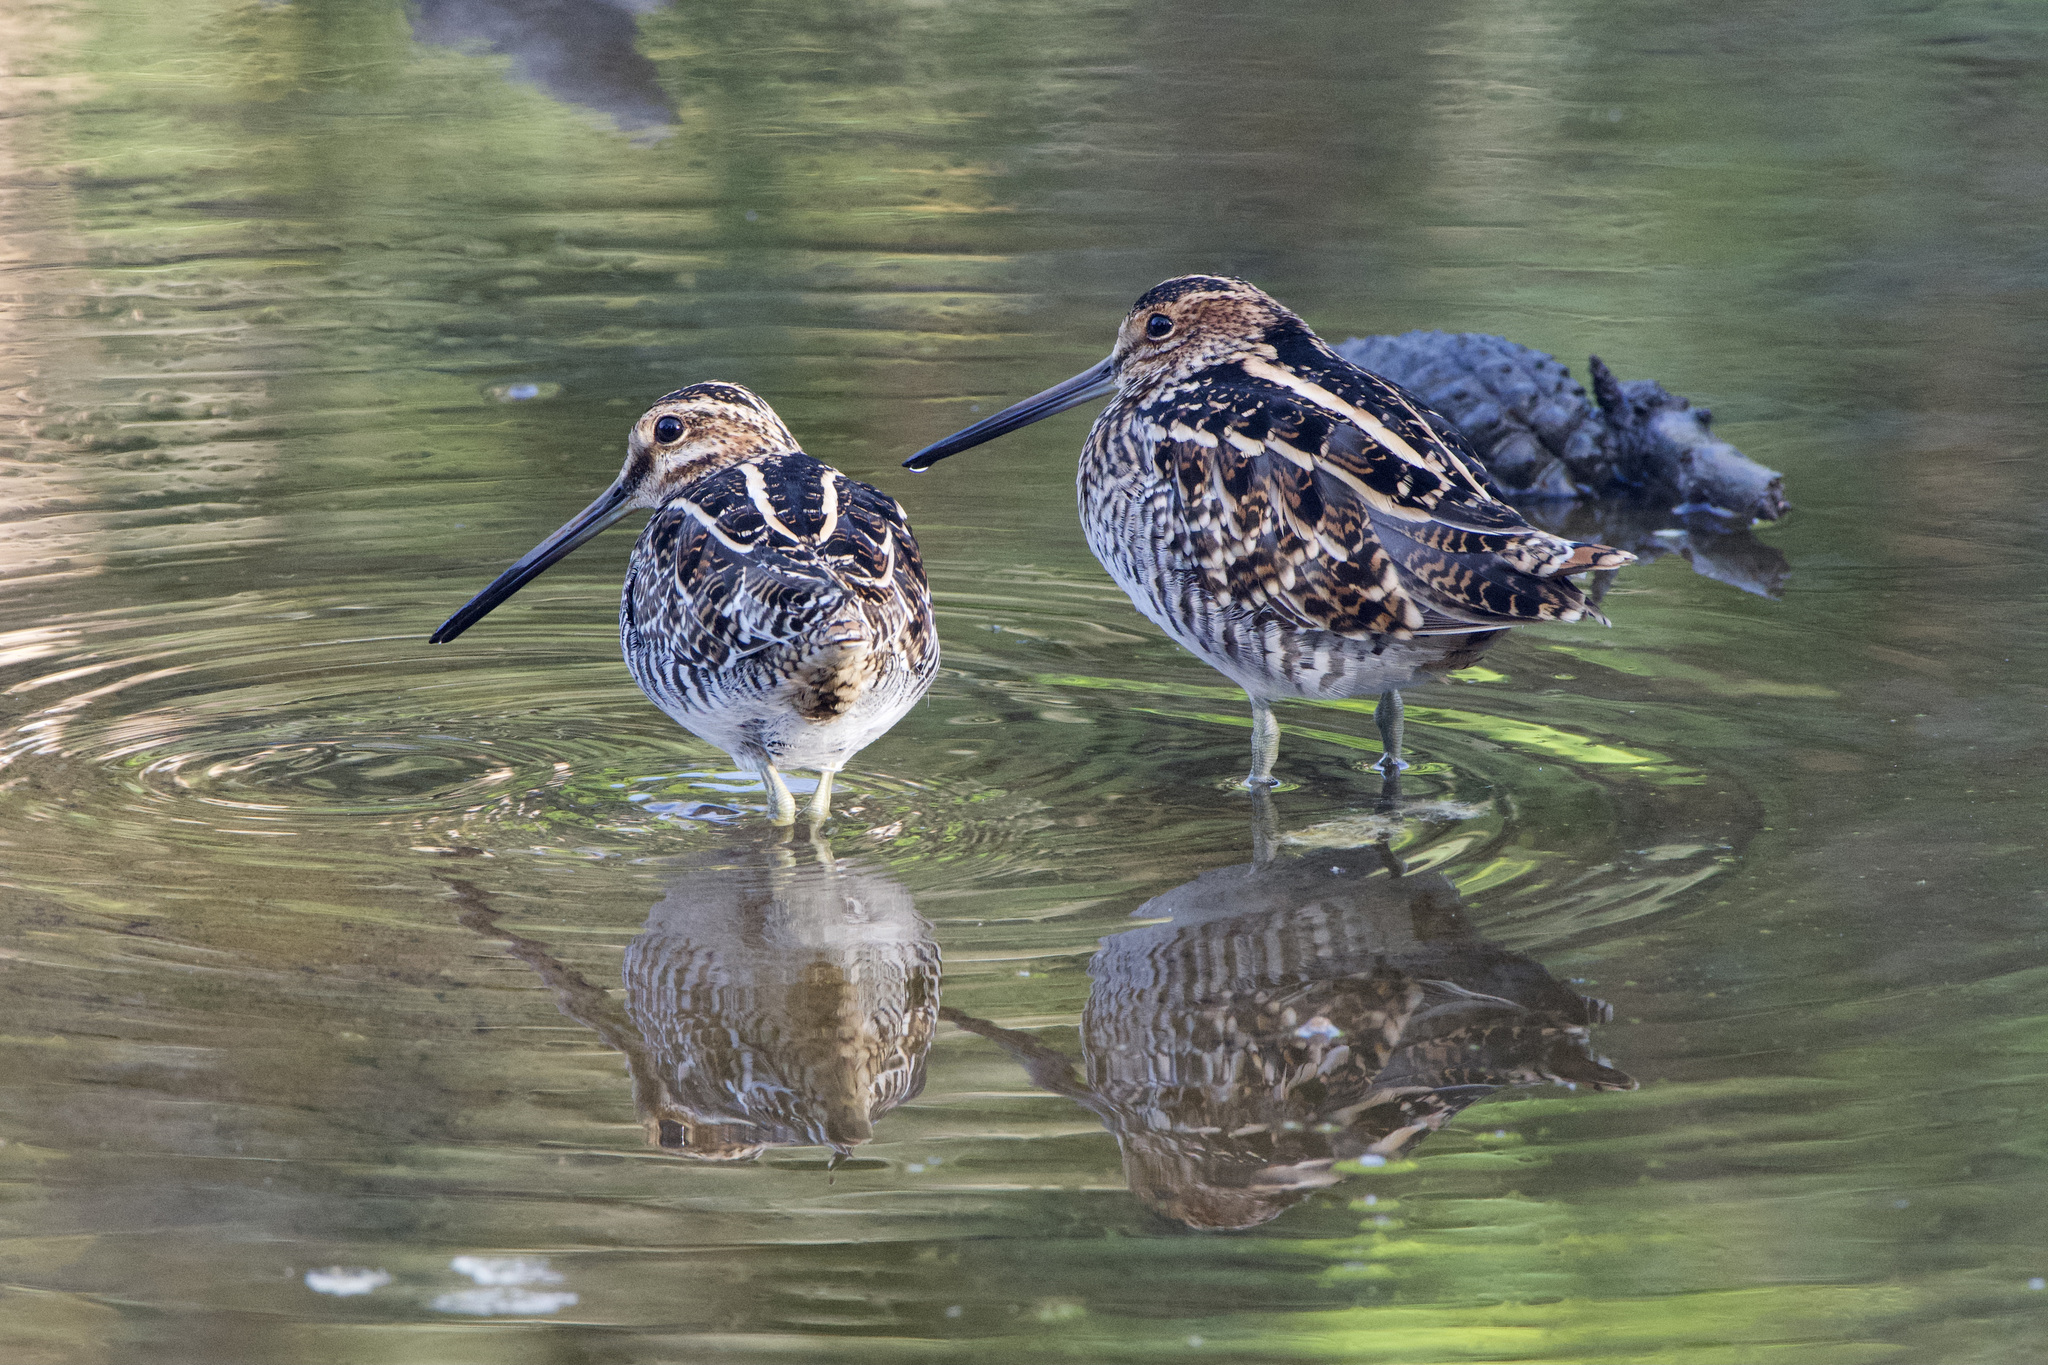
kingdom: Animalia
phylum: Chordata
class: Aves
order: Charadriiformes
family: Scolopacidae
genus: Gallinago
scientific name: Gallinago delicata
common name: Wilson's snipe
